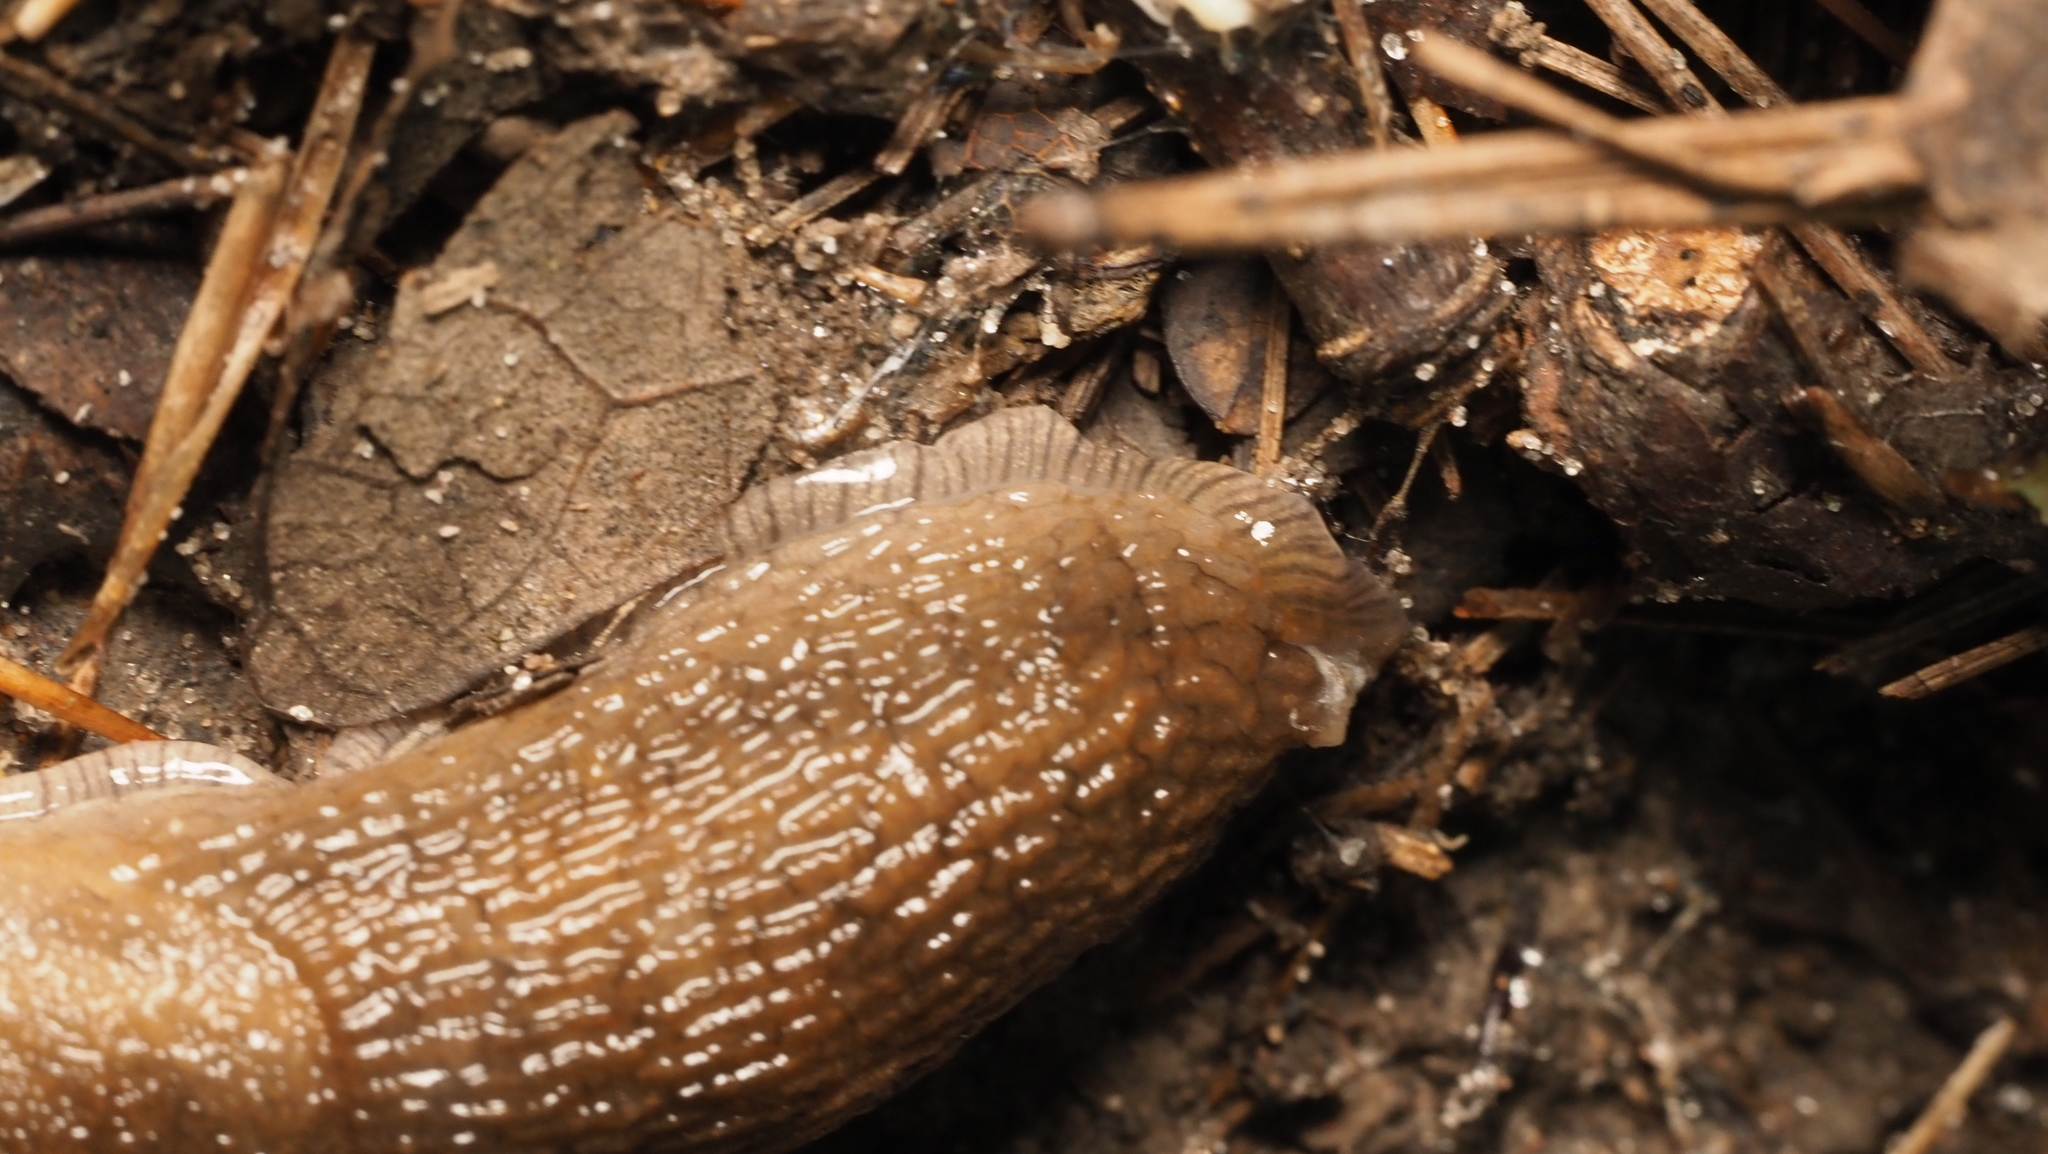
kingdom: Animalia
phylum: Mollusca
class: Gastropoda
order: Stylommatophora
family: Arionidae
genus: Arion
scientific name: Arion subfuscus
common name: Dusky arion
